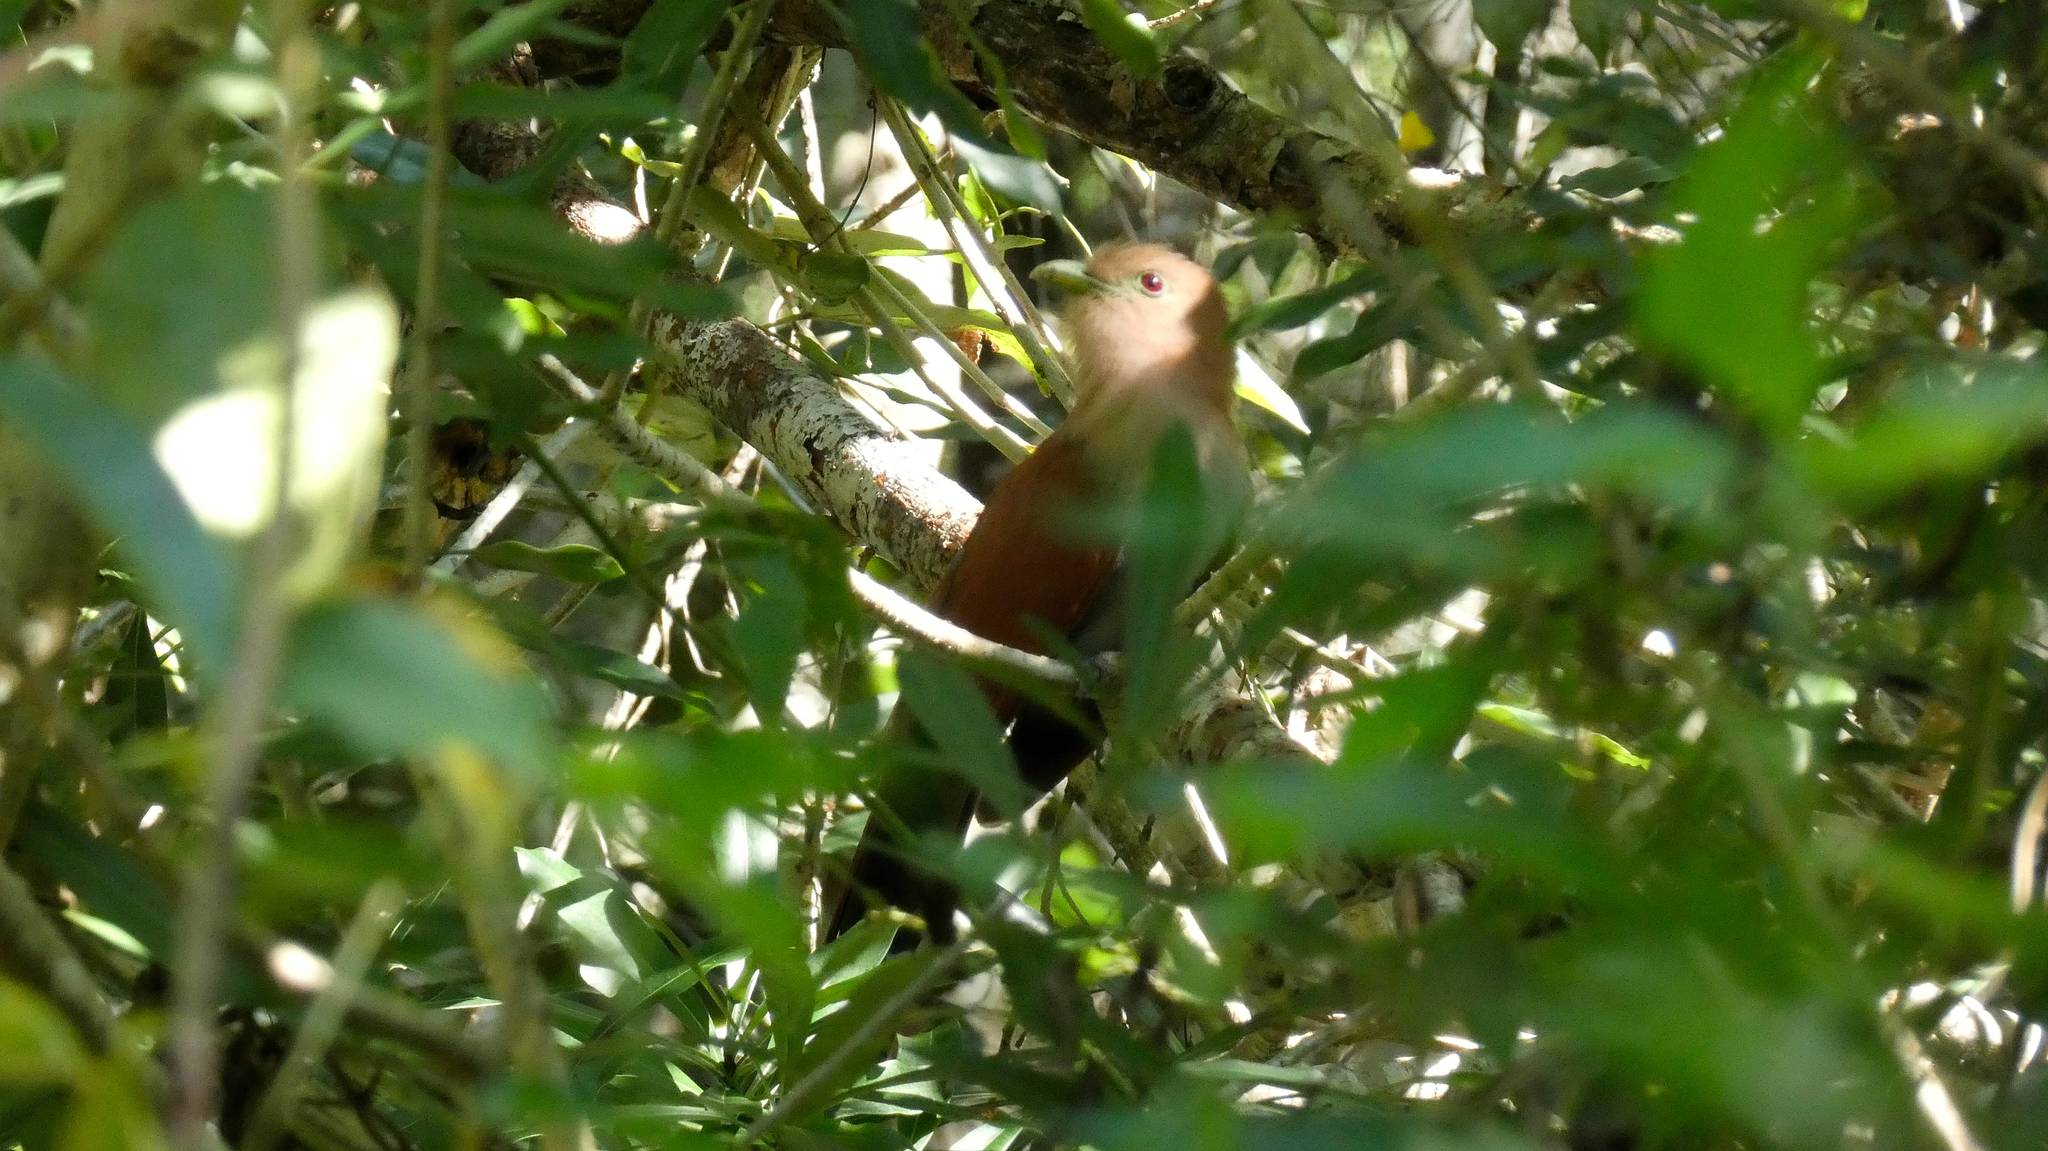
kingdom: Animalia
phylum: Chordata
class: Aves
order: Cuculiformes
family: Cuculidae
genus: Piaya
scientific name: Piaya cayana
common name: Squirrel cuckoo
